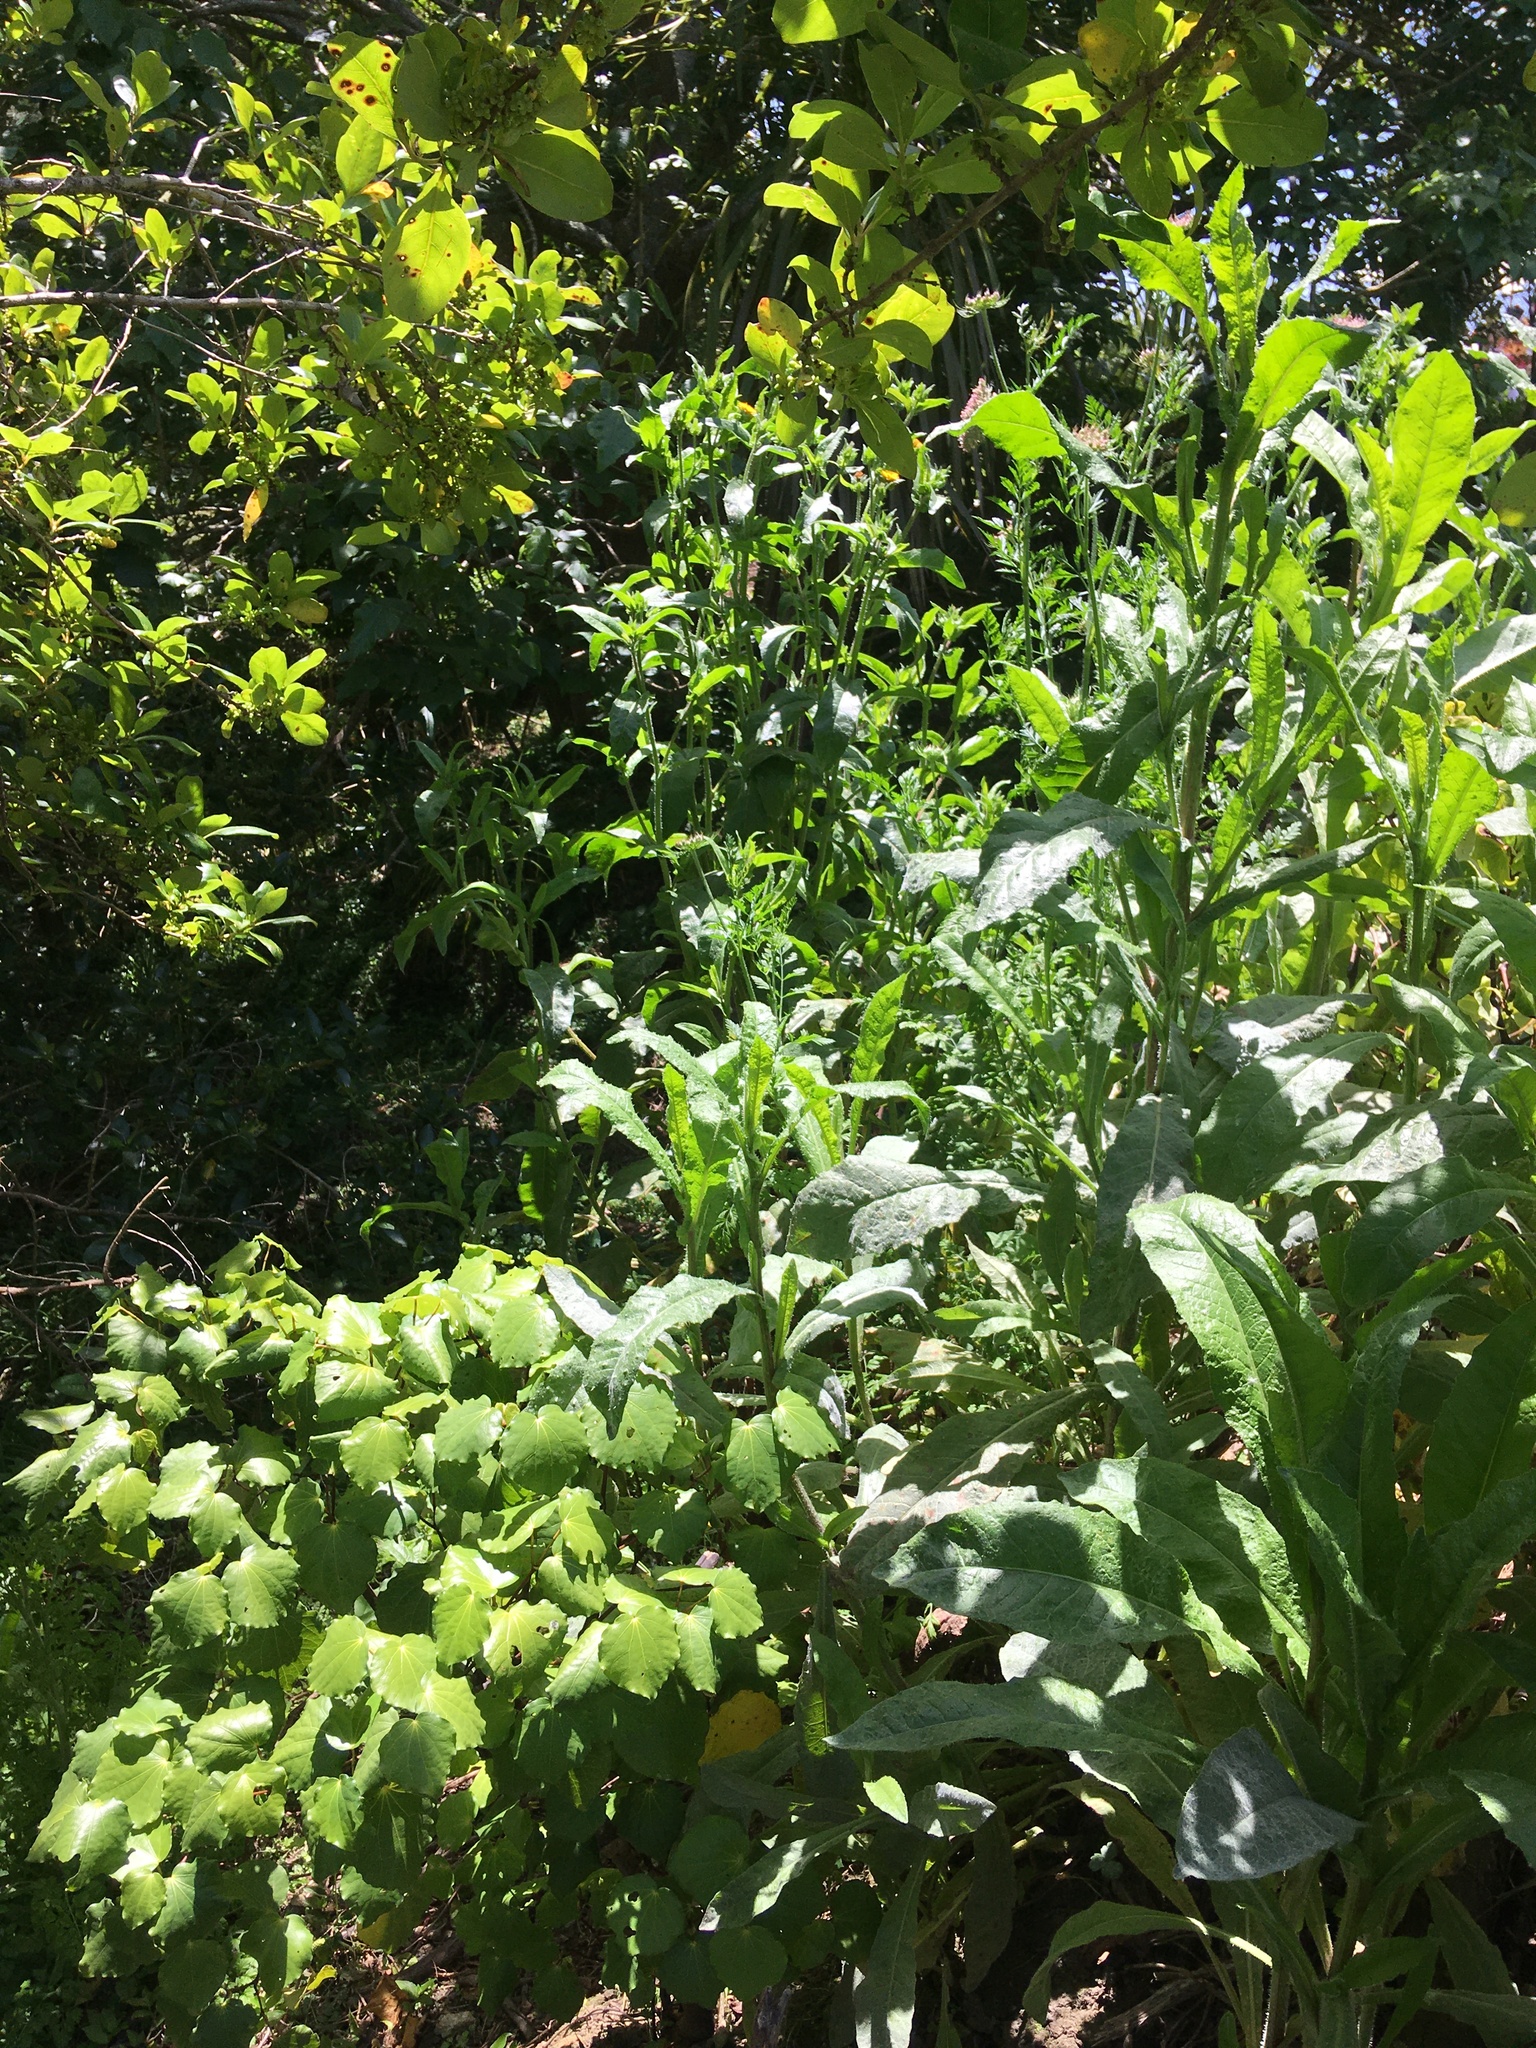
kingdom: Plantae
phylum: Tracheophyta
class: Magnoliopsida
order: Asterales
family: Asteraceae
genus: Helminthotheca
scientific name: Helminthotheca echioides
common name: Ox-tongue
